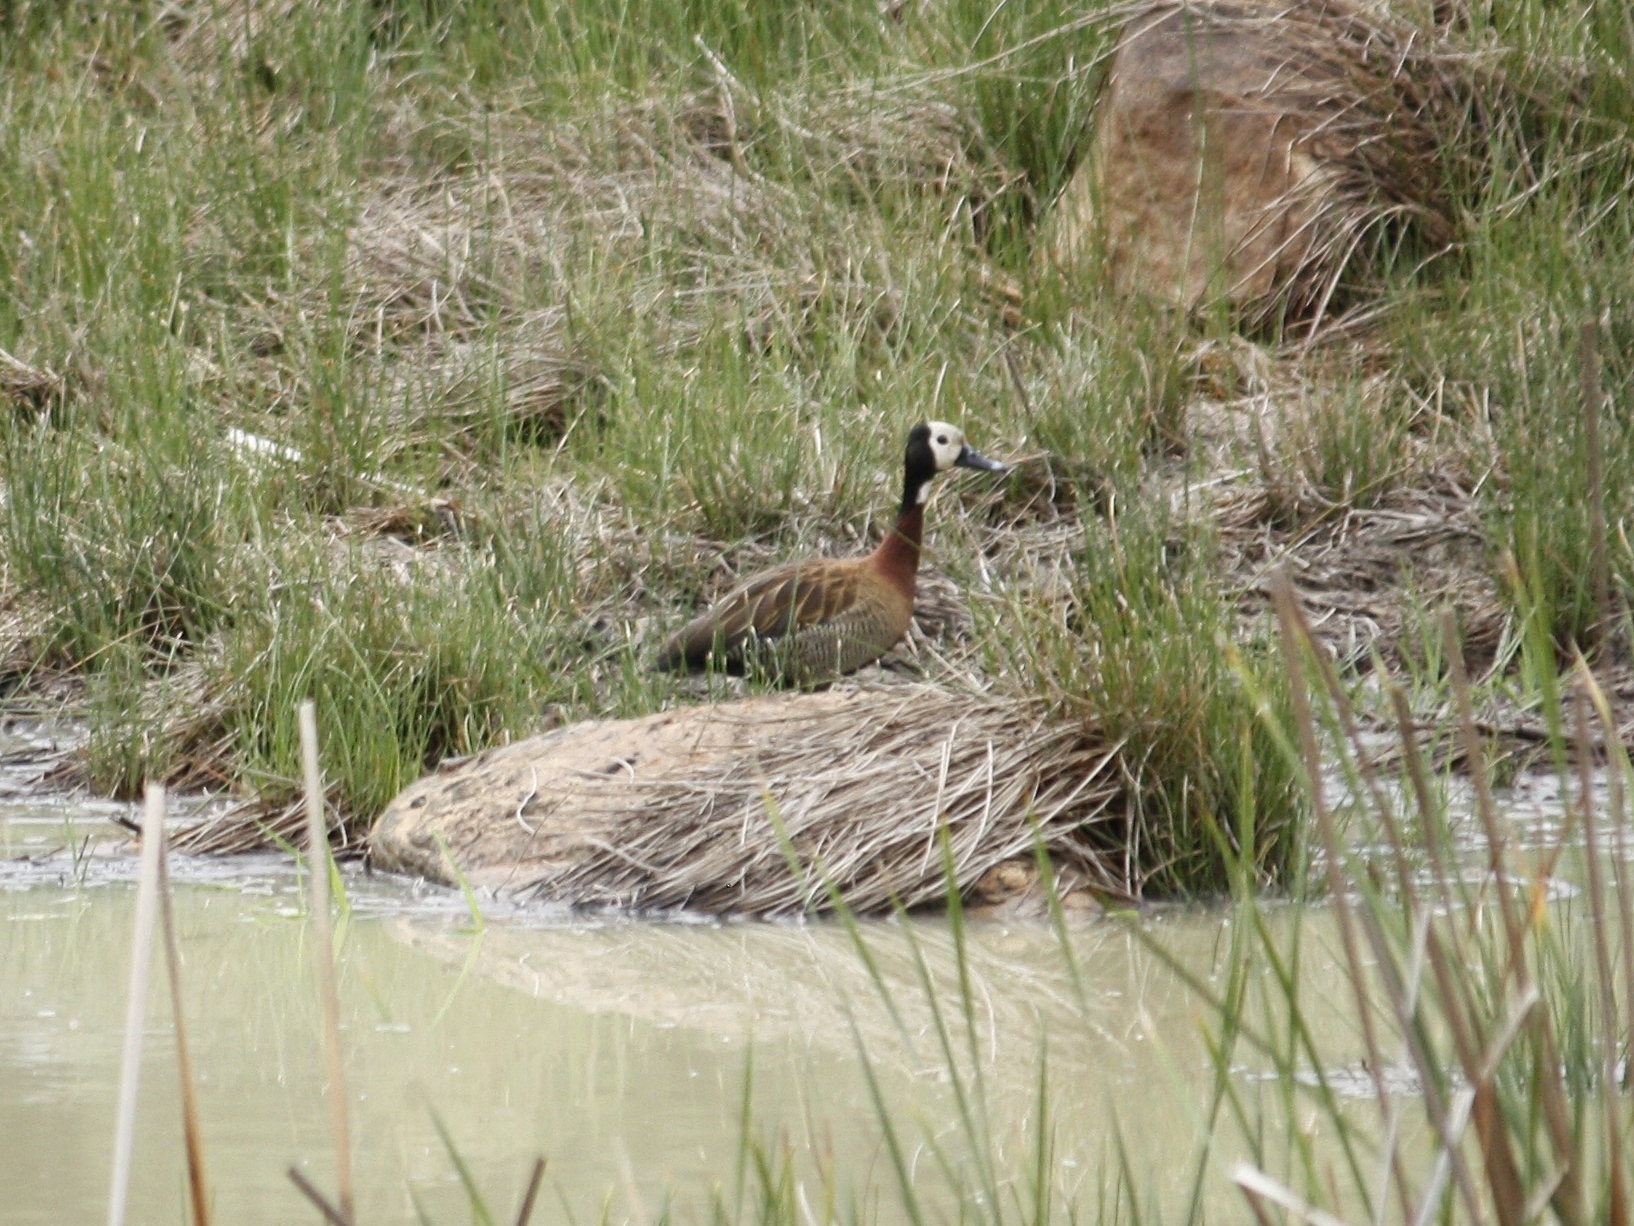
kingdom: Animalia
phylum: Chordata
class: Aves
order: Anseriformes
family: Anatidae
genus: Dendrocygna
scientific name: Dendrocygna viduata
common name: White-faced whistling duck
